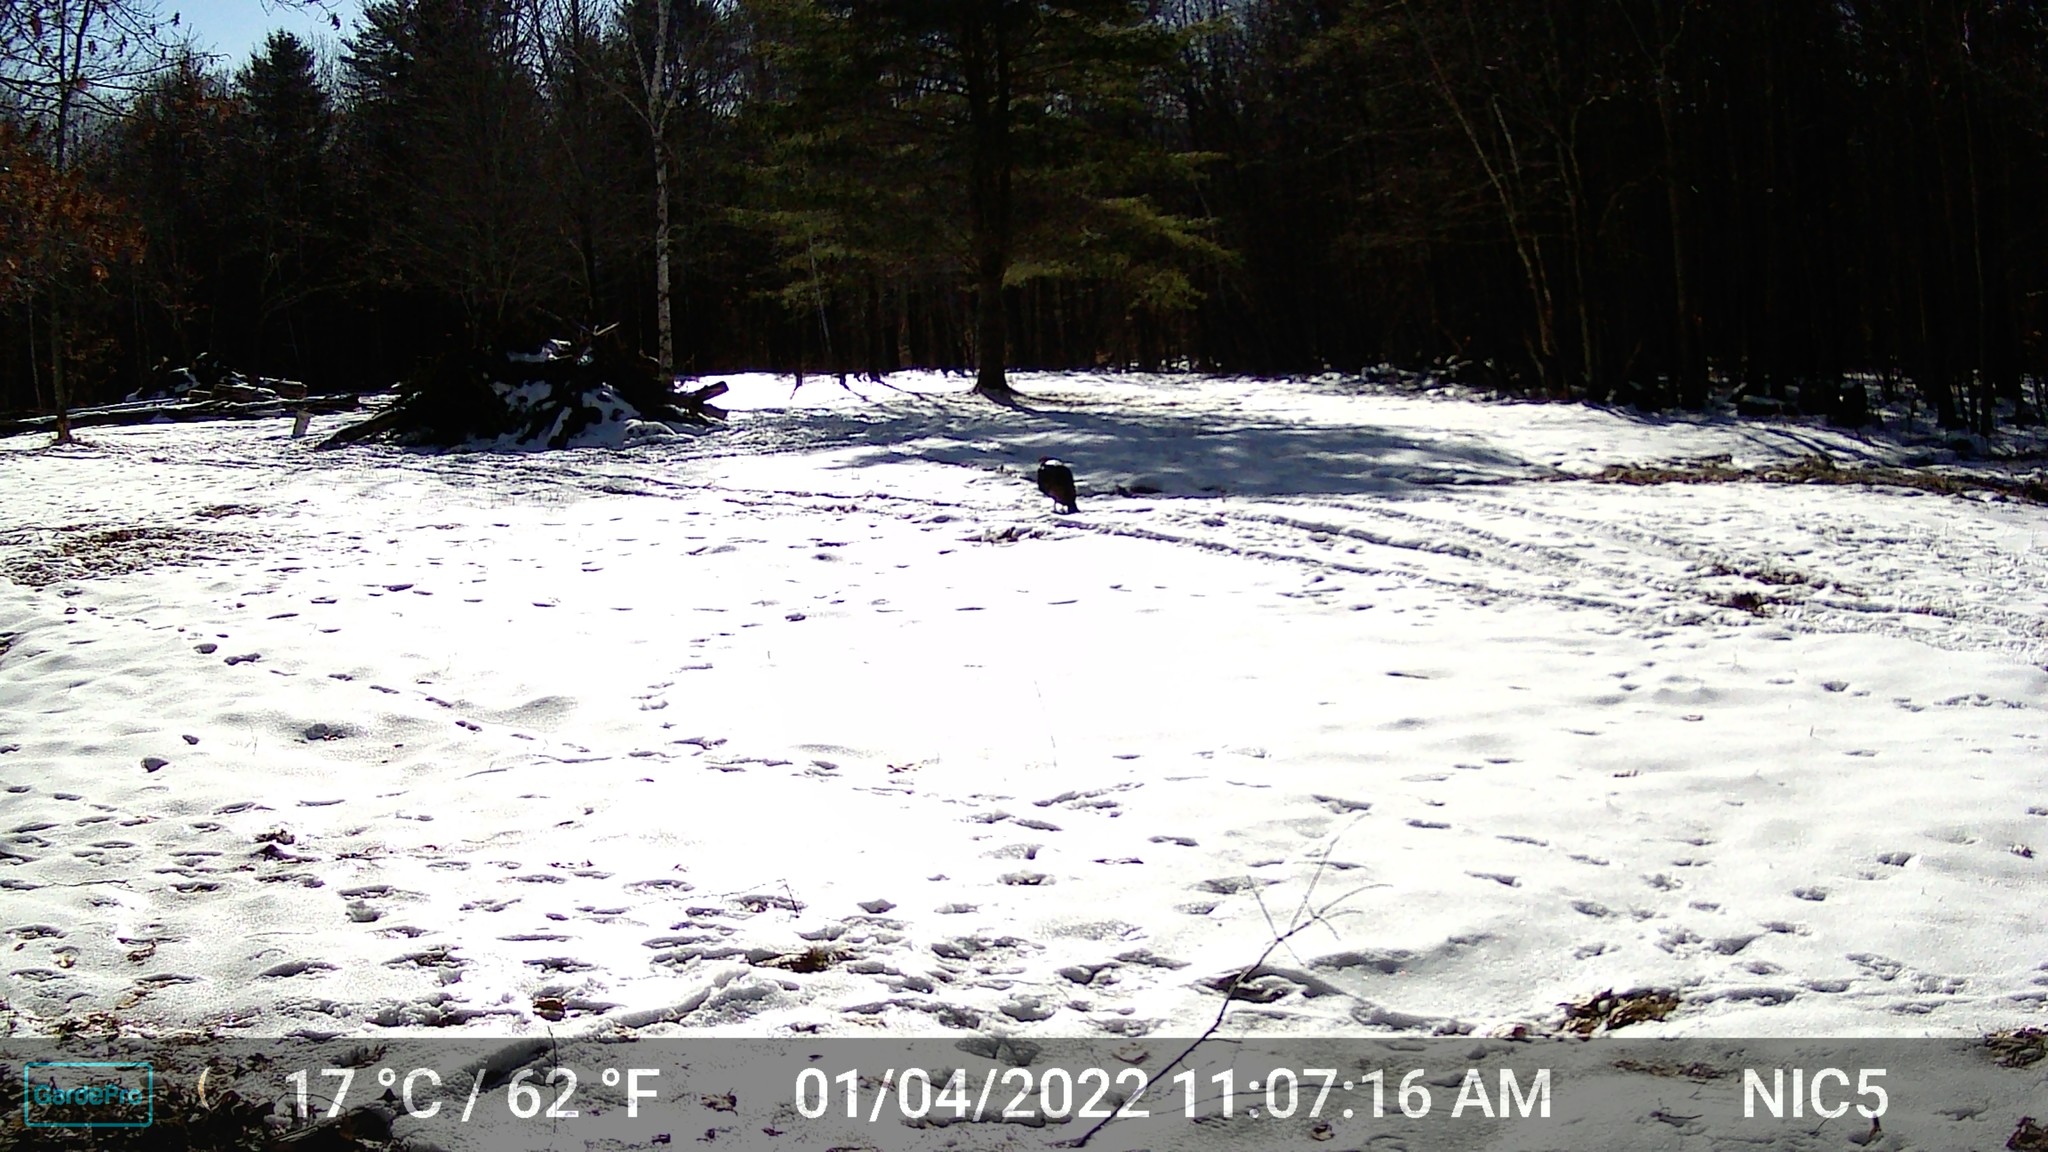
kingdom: Animalia
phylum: Chordata
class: Aves
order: Galliformes
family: Phasianidae
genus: Meleagris
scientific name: Meleagris gallopavo
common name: Wild turkey
